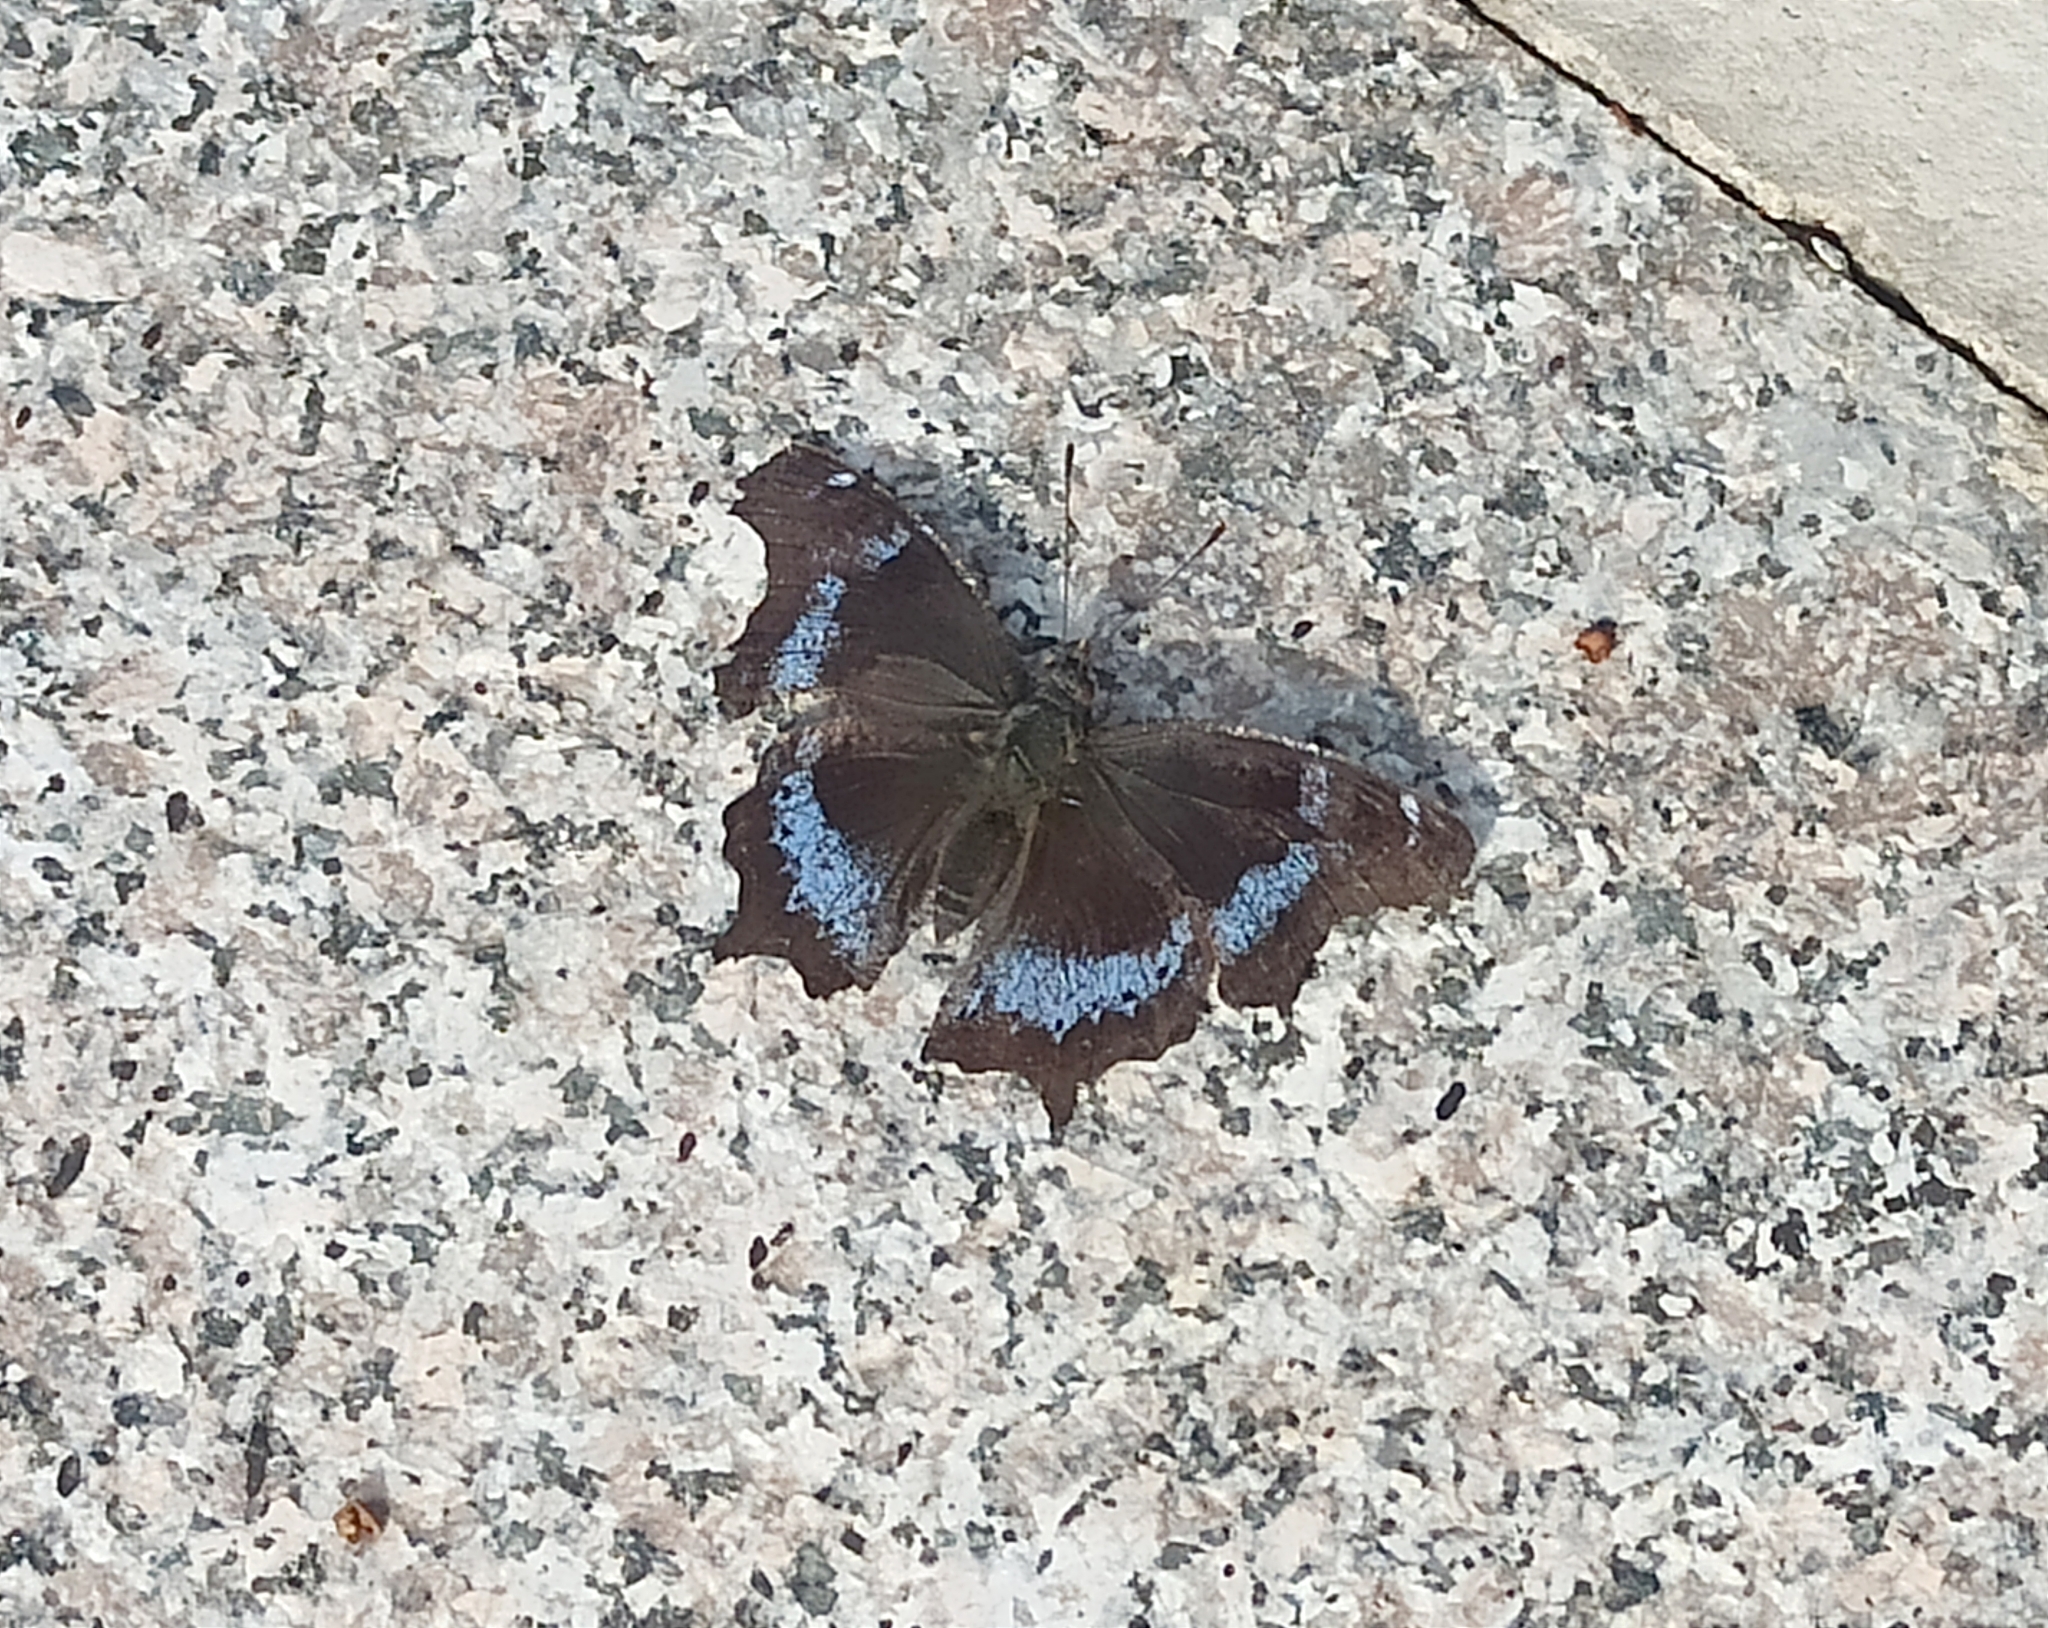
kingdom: Animalia
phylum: Arthropoda
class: Insecta
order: Lepidoptera
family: Nymphalidae
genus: Vanessa
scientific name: Vanessa Kaniska canace
